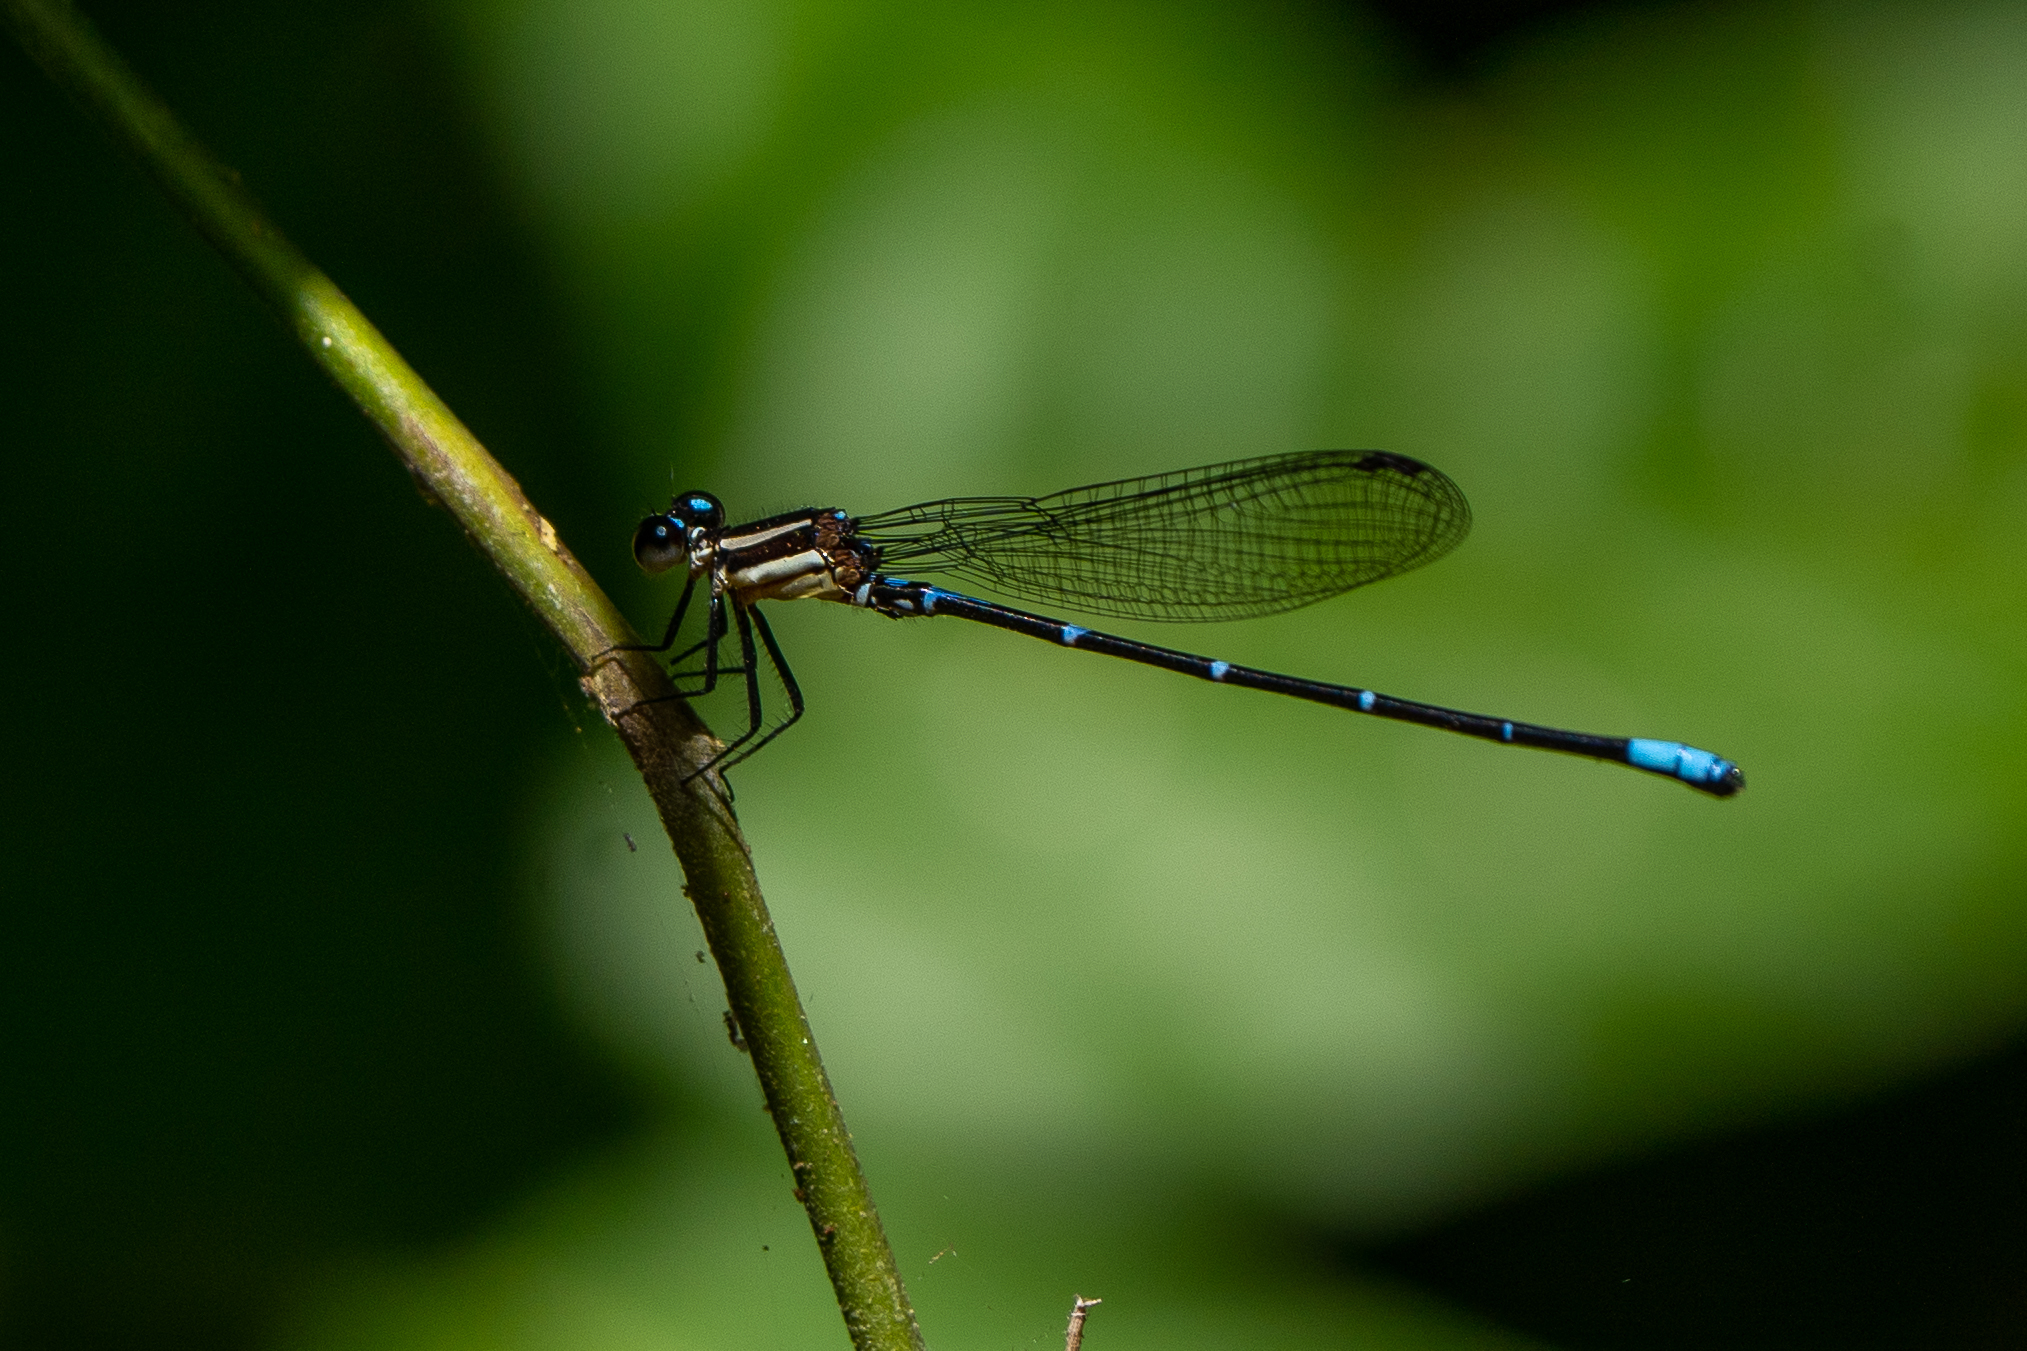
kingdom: Animalia
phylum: Arthropoda
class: Insecta
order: Odonata
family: Coenagrionidae
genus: Argia
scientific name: Argia oculata
